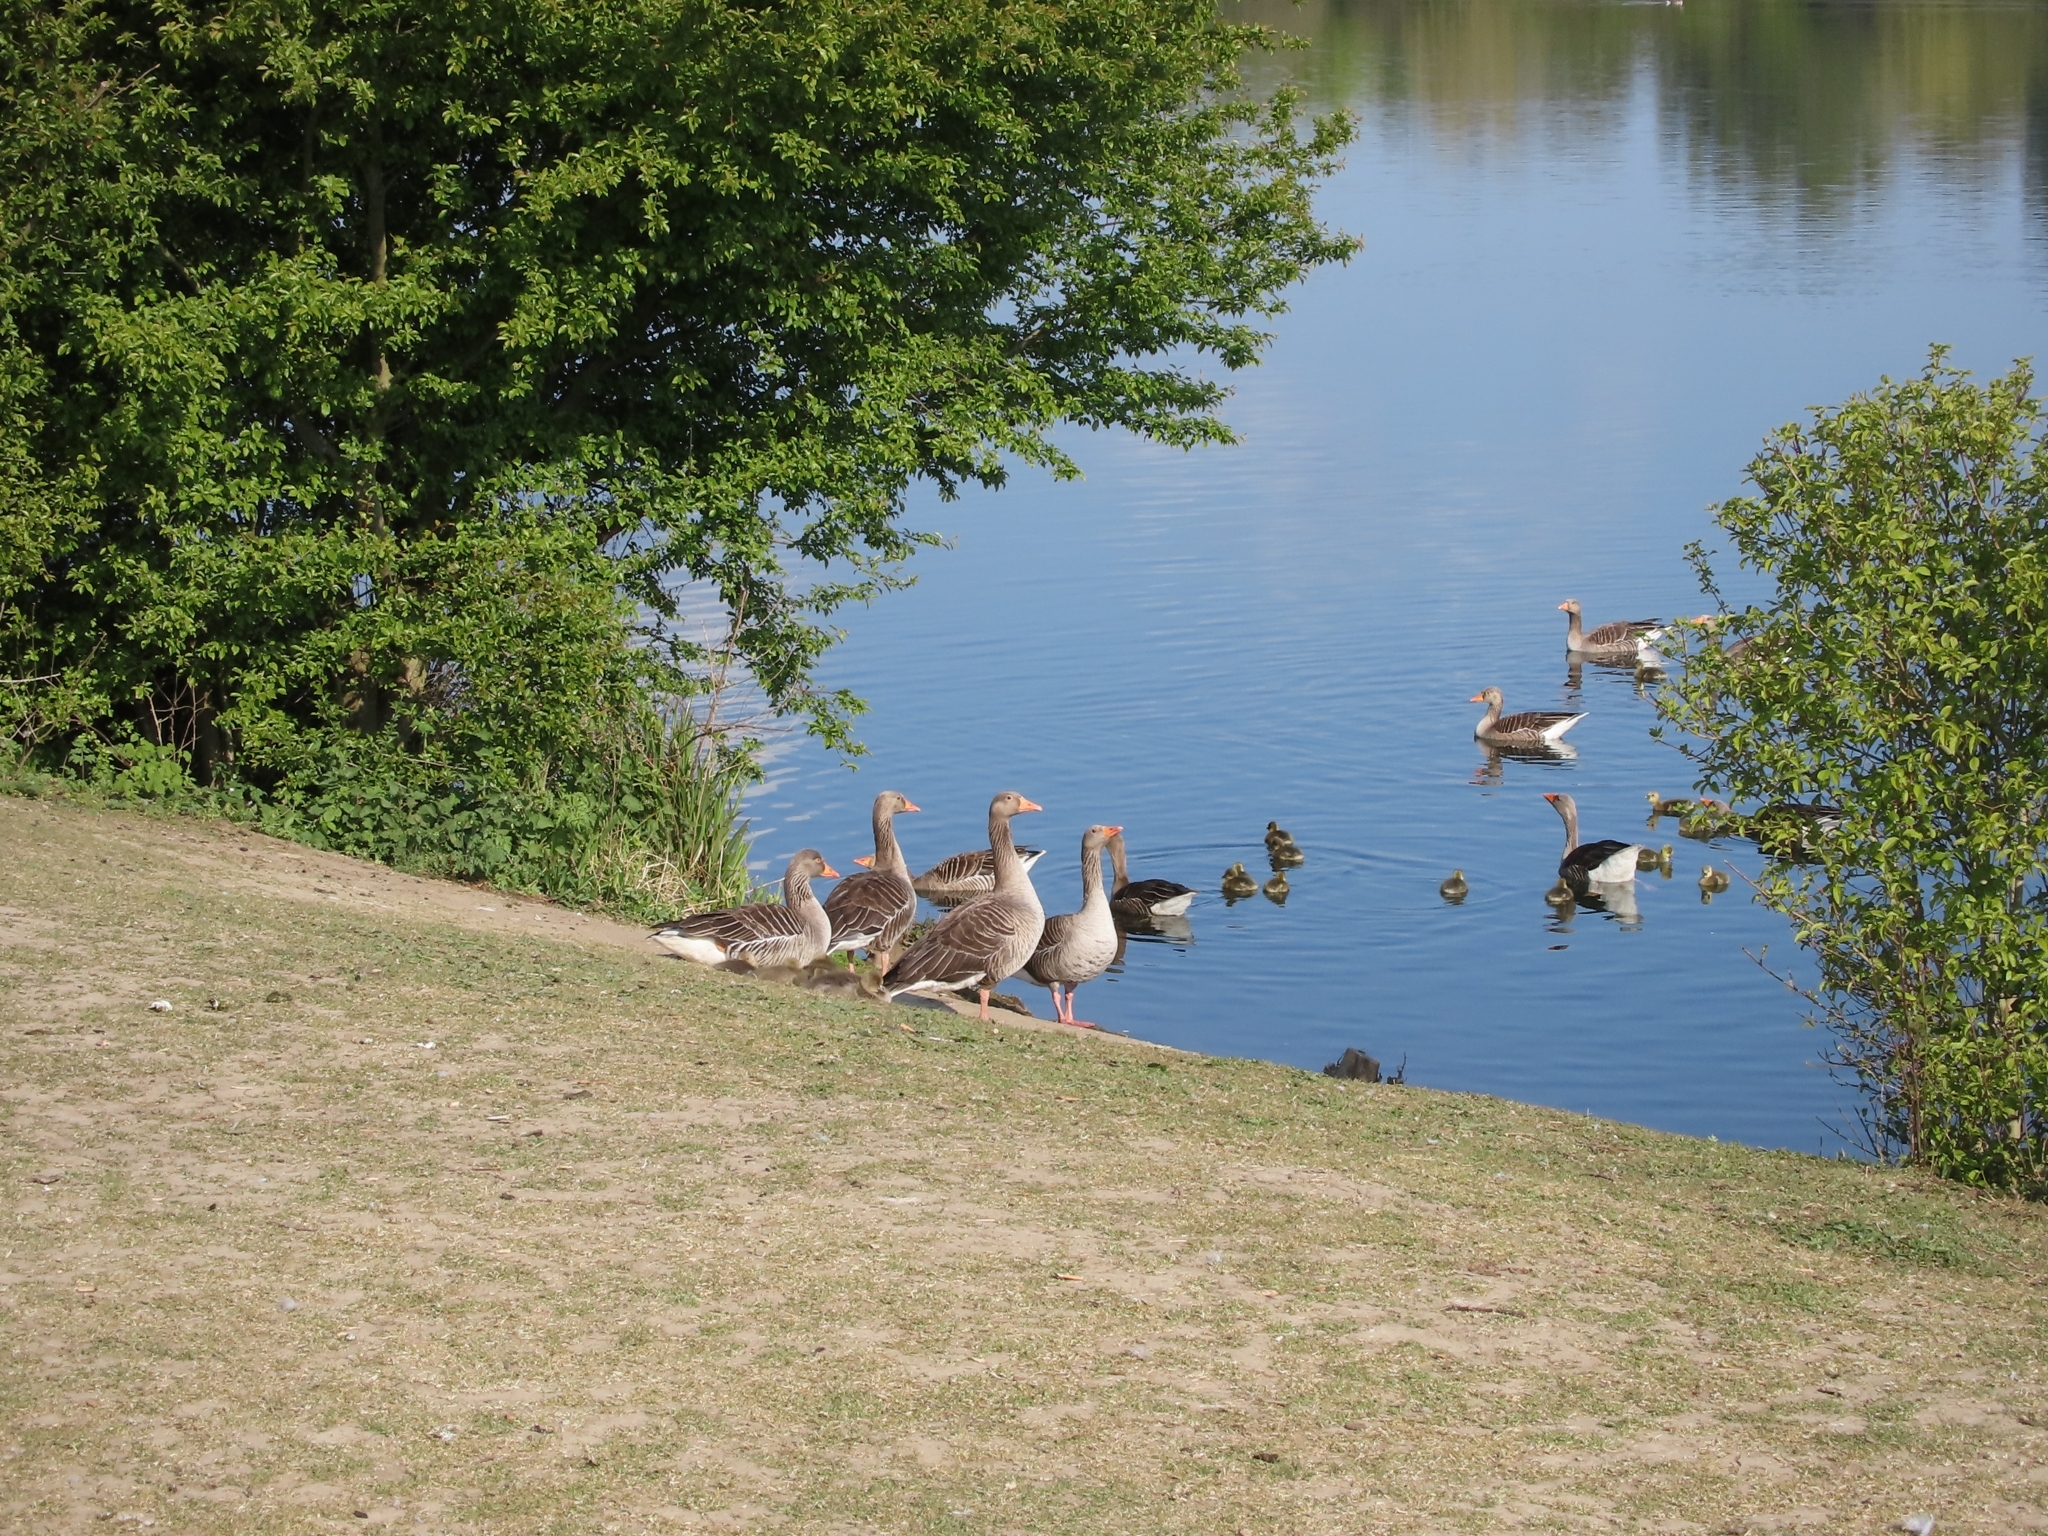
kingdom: Animalia
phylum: Chordata
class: Aves
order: Anseriformes
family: Anatidae
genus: Anser
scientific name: Anser anser
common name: Greylag goose
